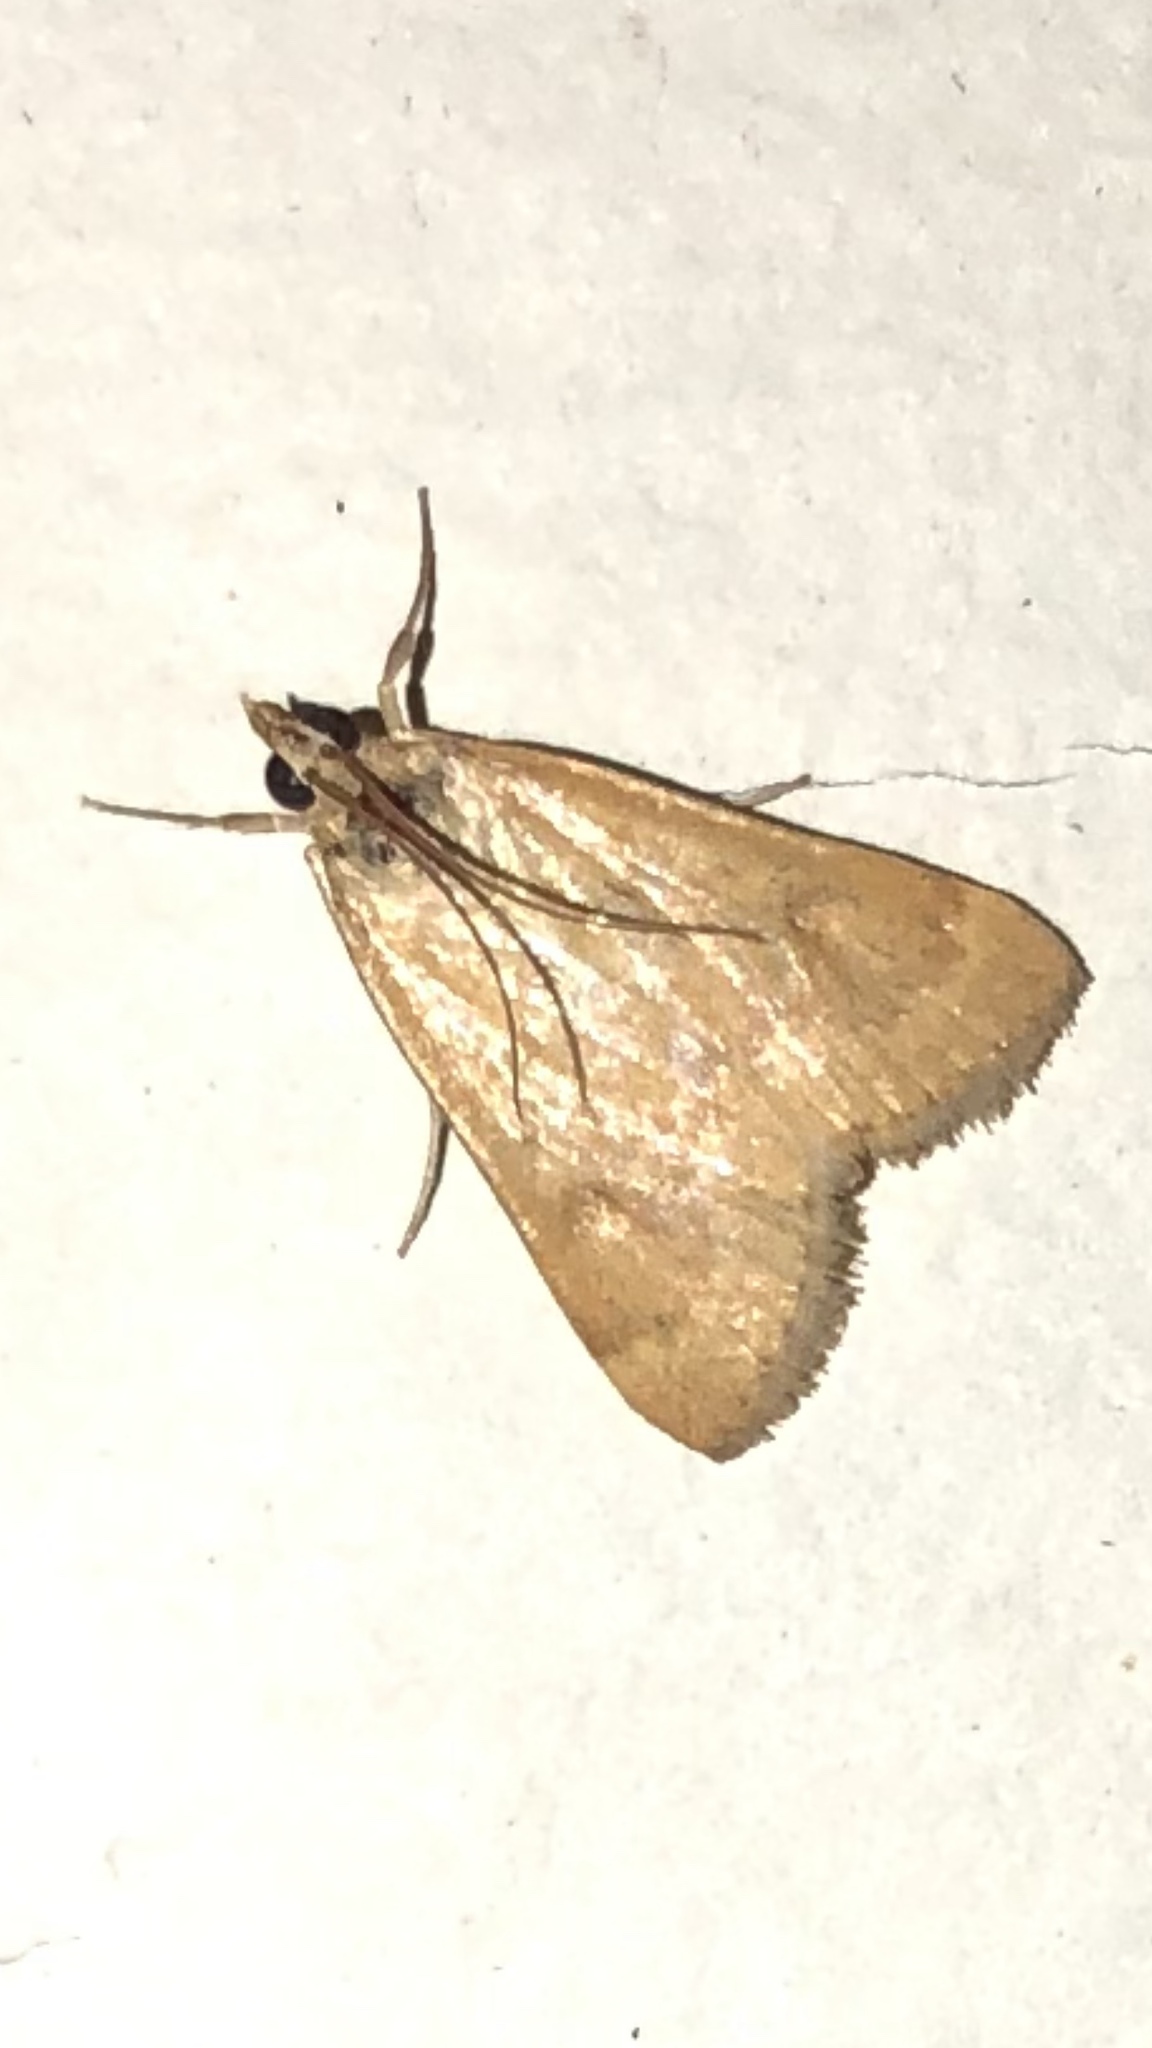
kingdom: Animalia
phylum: Arthropoda
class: Insecta
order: Lepidoptera
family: Crambidae
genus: Achyra
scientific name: Achyra rantalis
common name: Garden webworm
